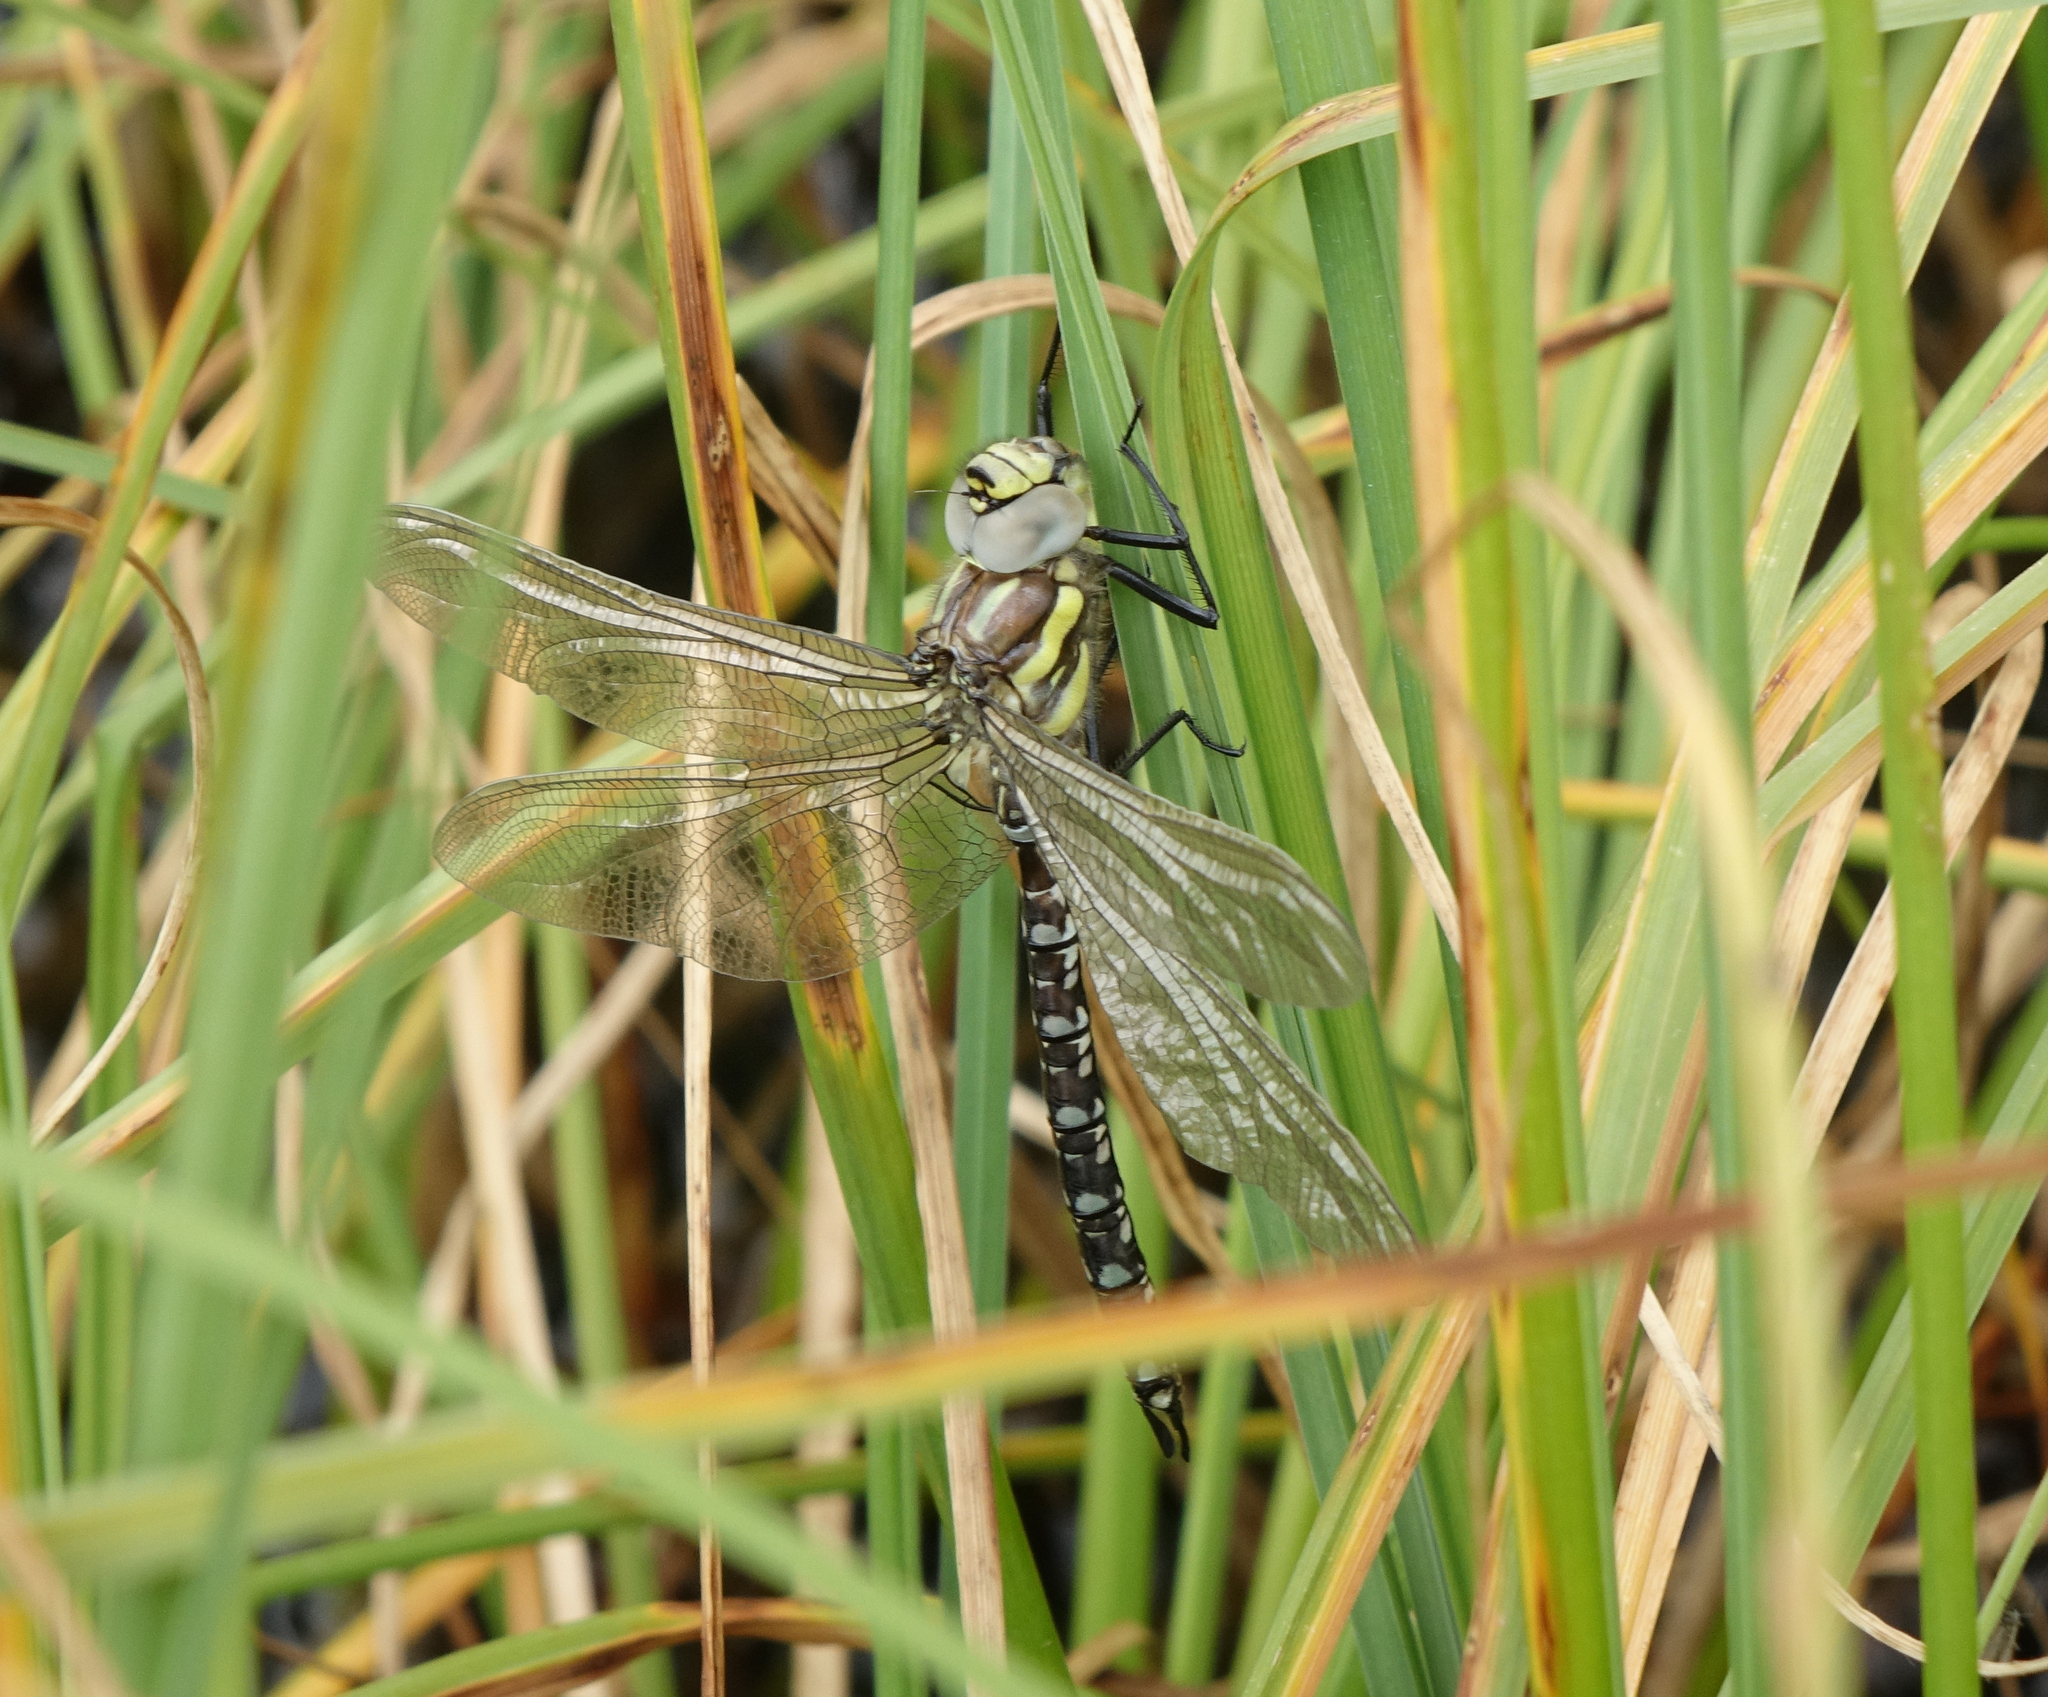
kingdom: Animalia
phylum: Arthropoda
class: Insecta
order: Odonata
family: Aeshnidae
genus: Aeshna
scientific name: Aeshna juncea
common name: Moorland hawker
